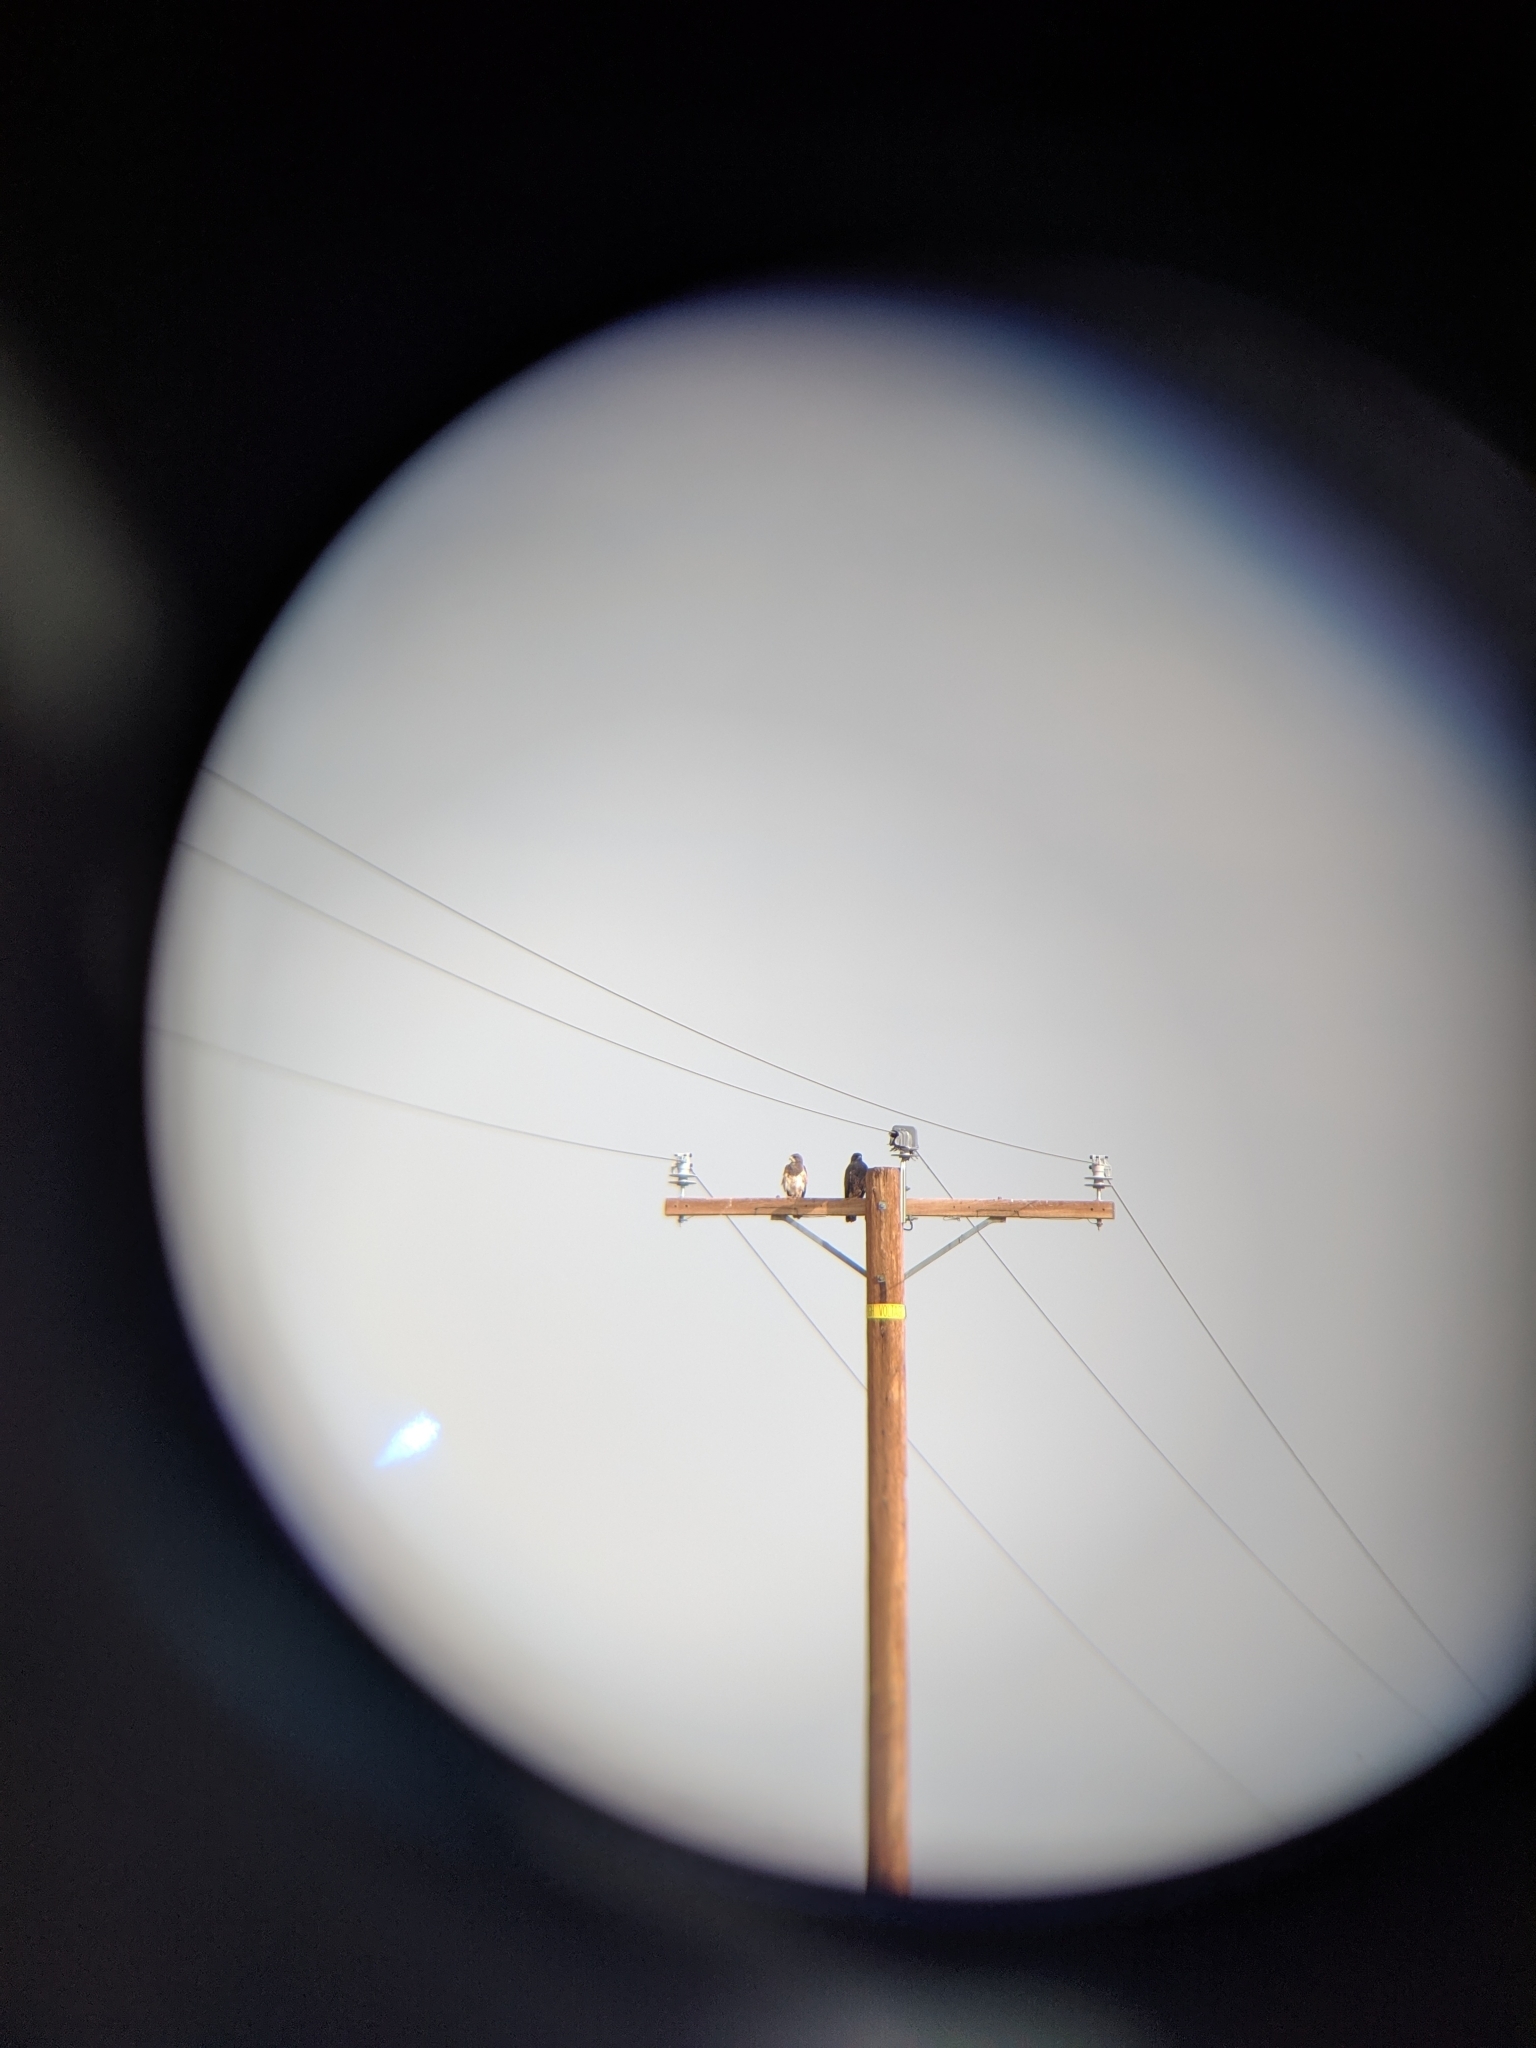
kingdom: Animalia
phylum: Chordata
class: Aves
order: Accipitriformes
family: Accipitridae
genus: Buteo
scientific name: Buteo swainsoni
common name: Swainson's hawk
